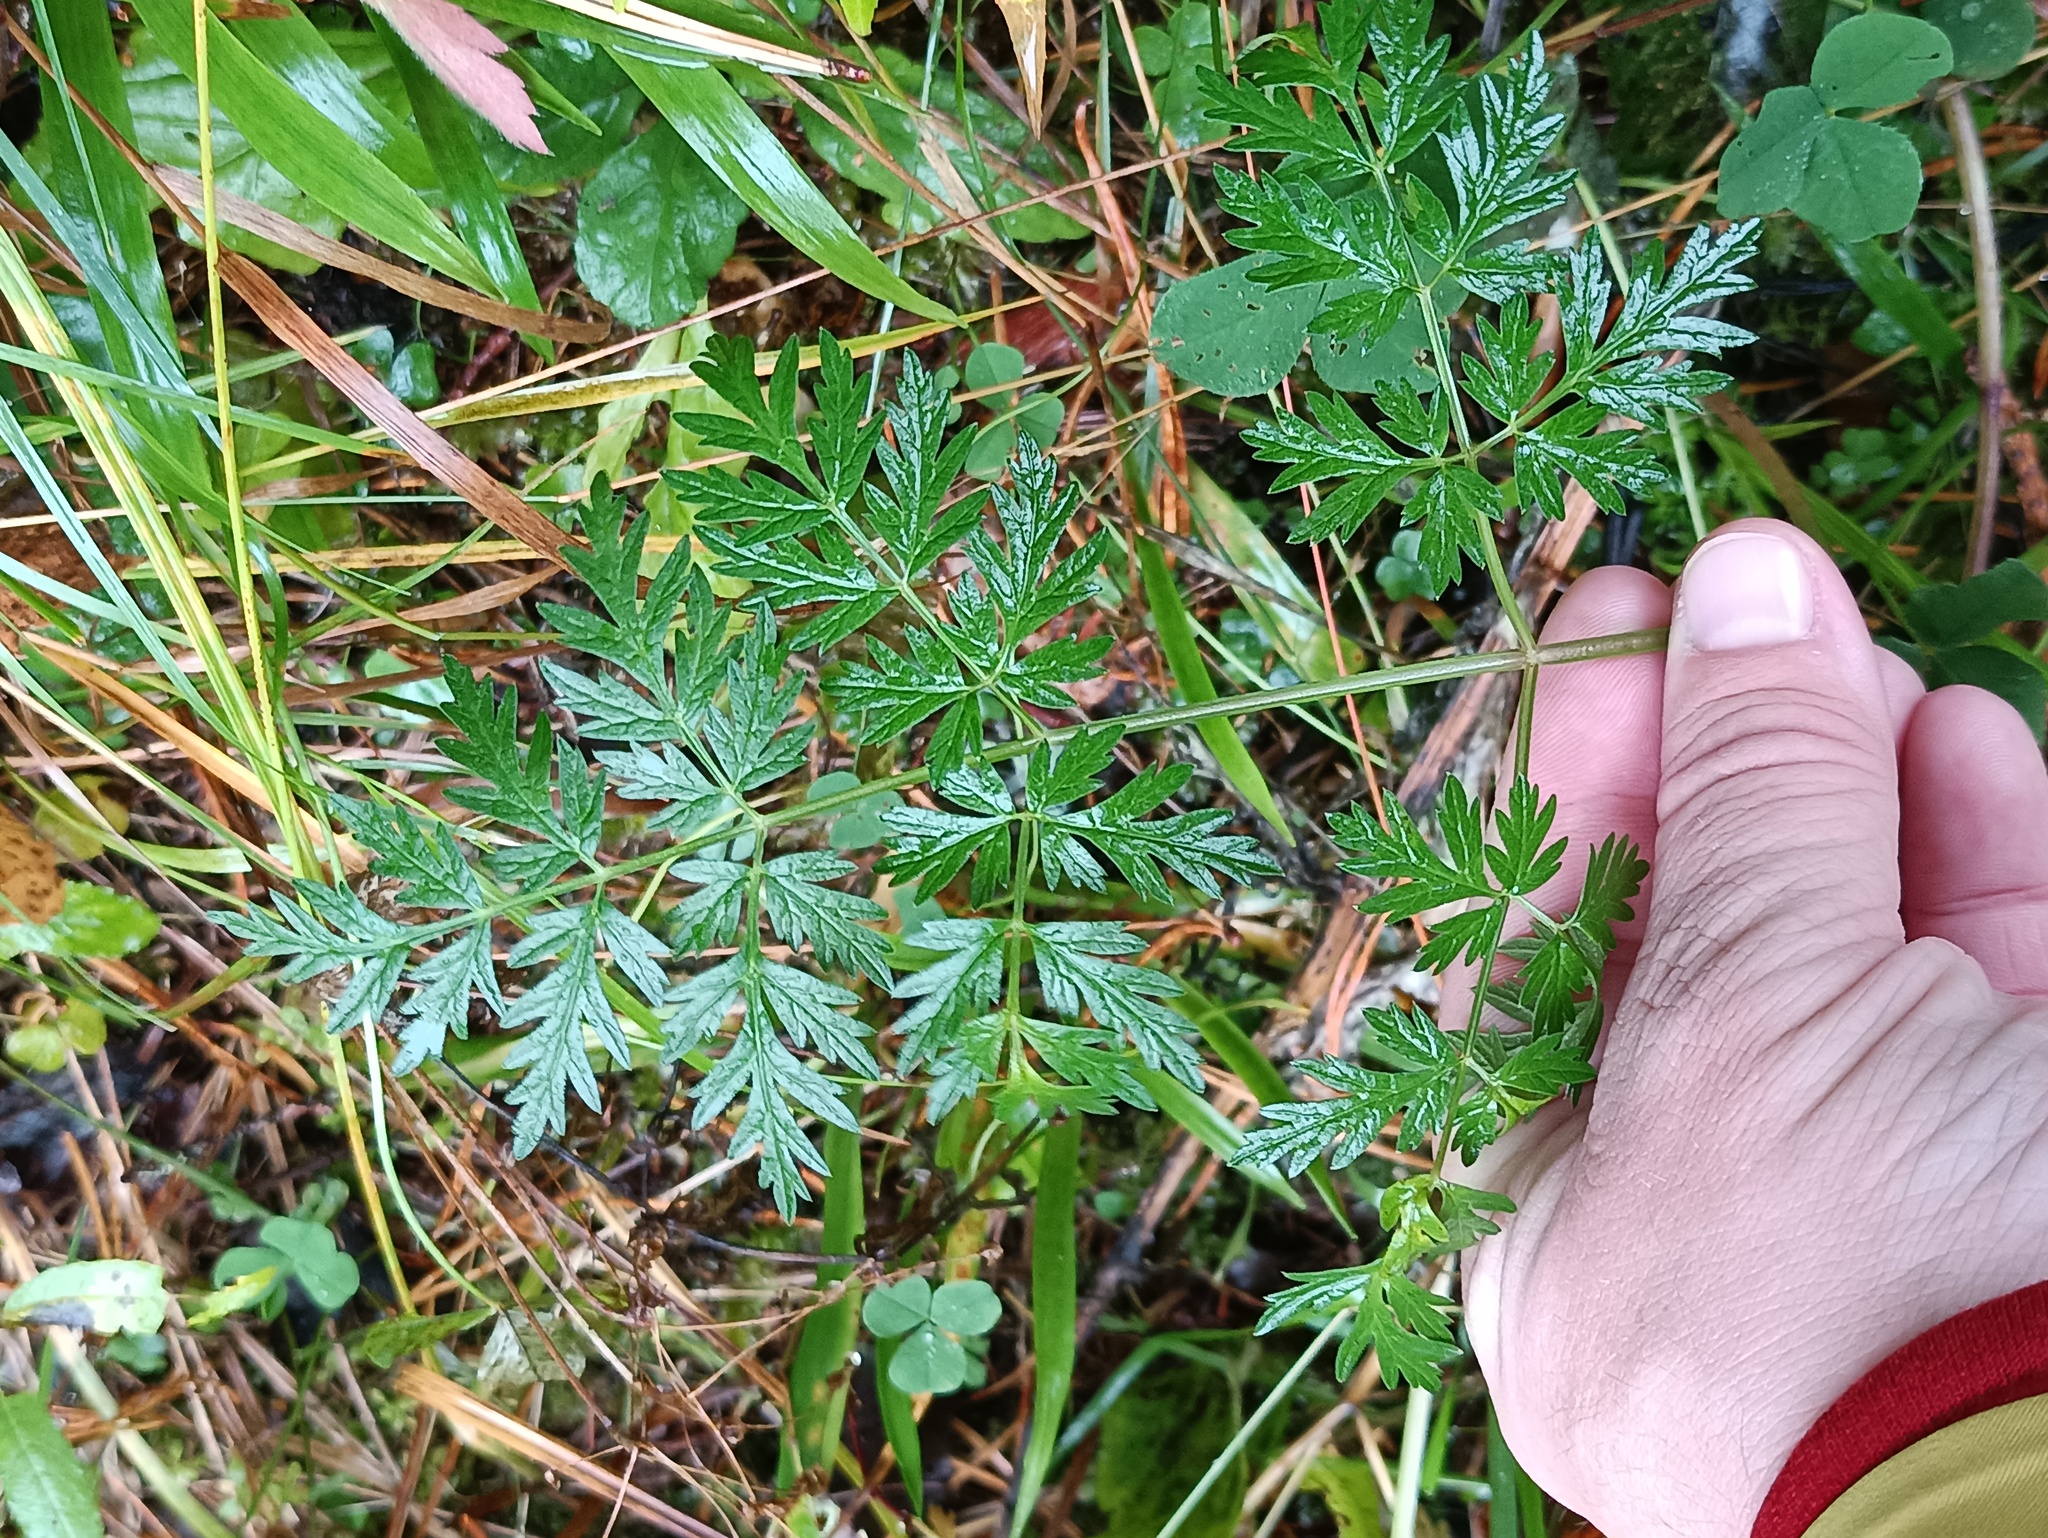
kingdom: Plantae
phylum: Tracheophyta
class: Magnoliopsida
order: Apiales
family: Apiaceae
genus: Anthriscus
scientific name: Anthriscus sylvestris
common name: Cow parsley
